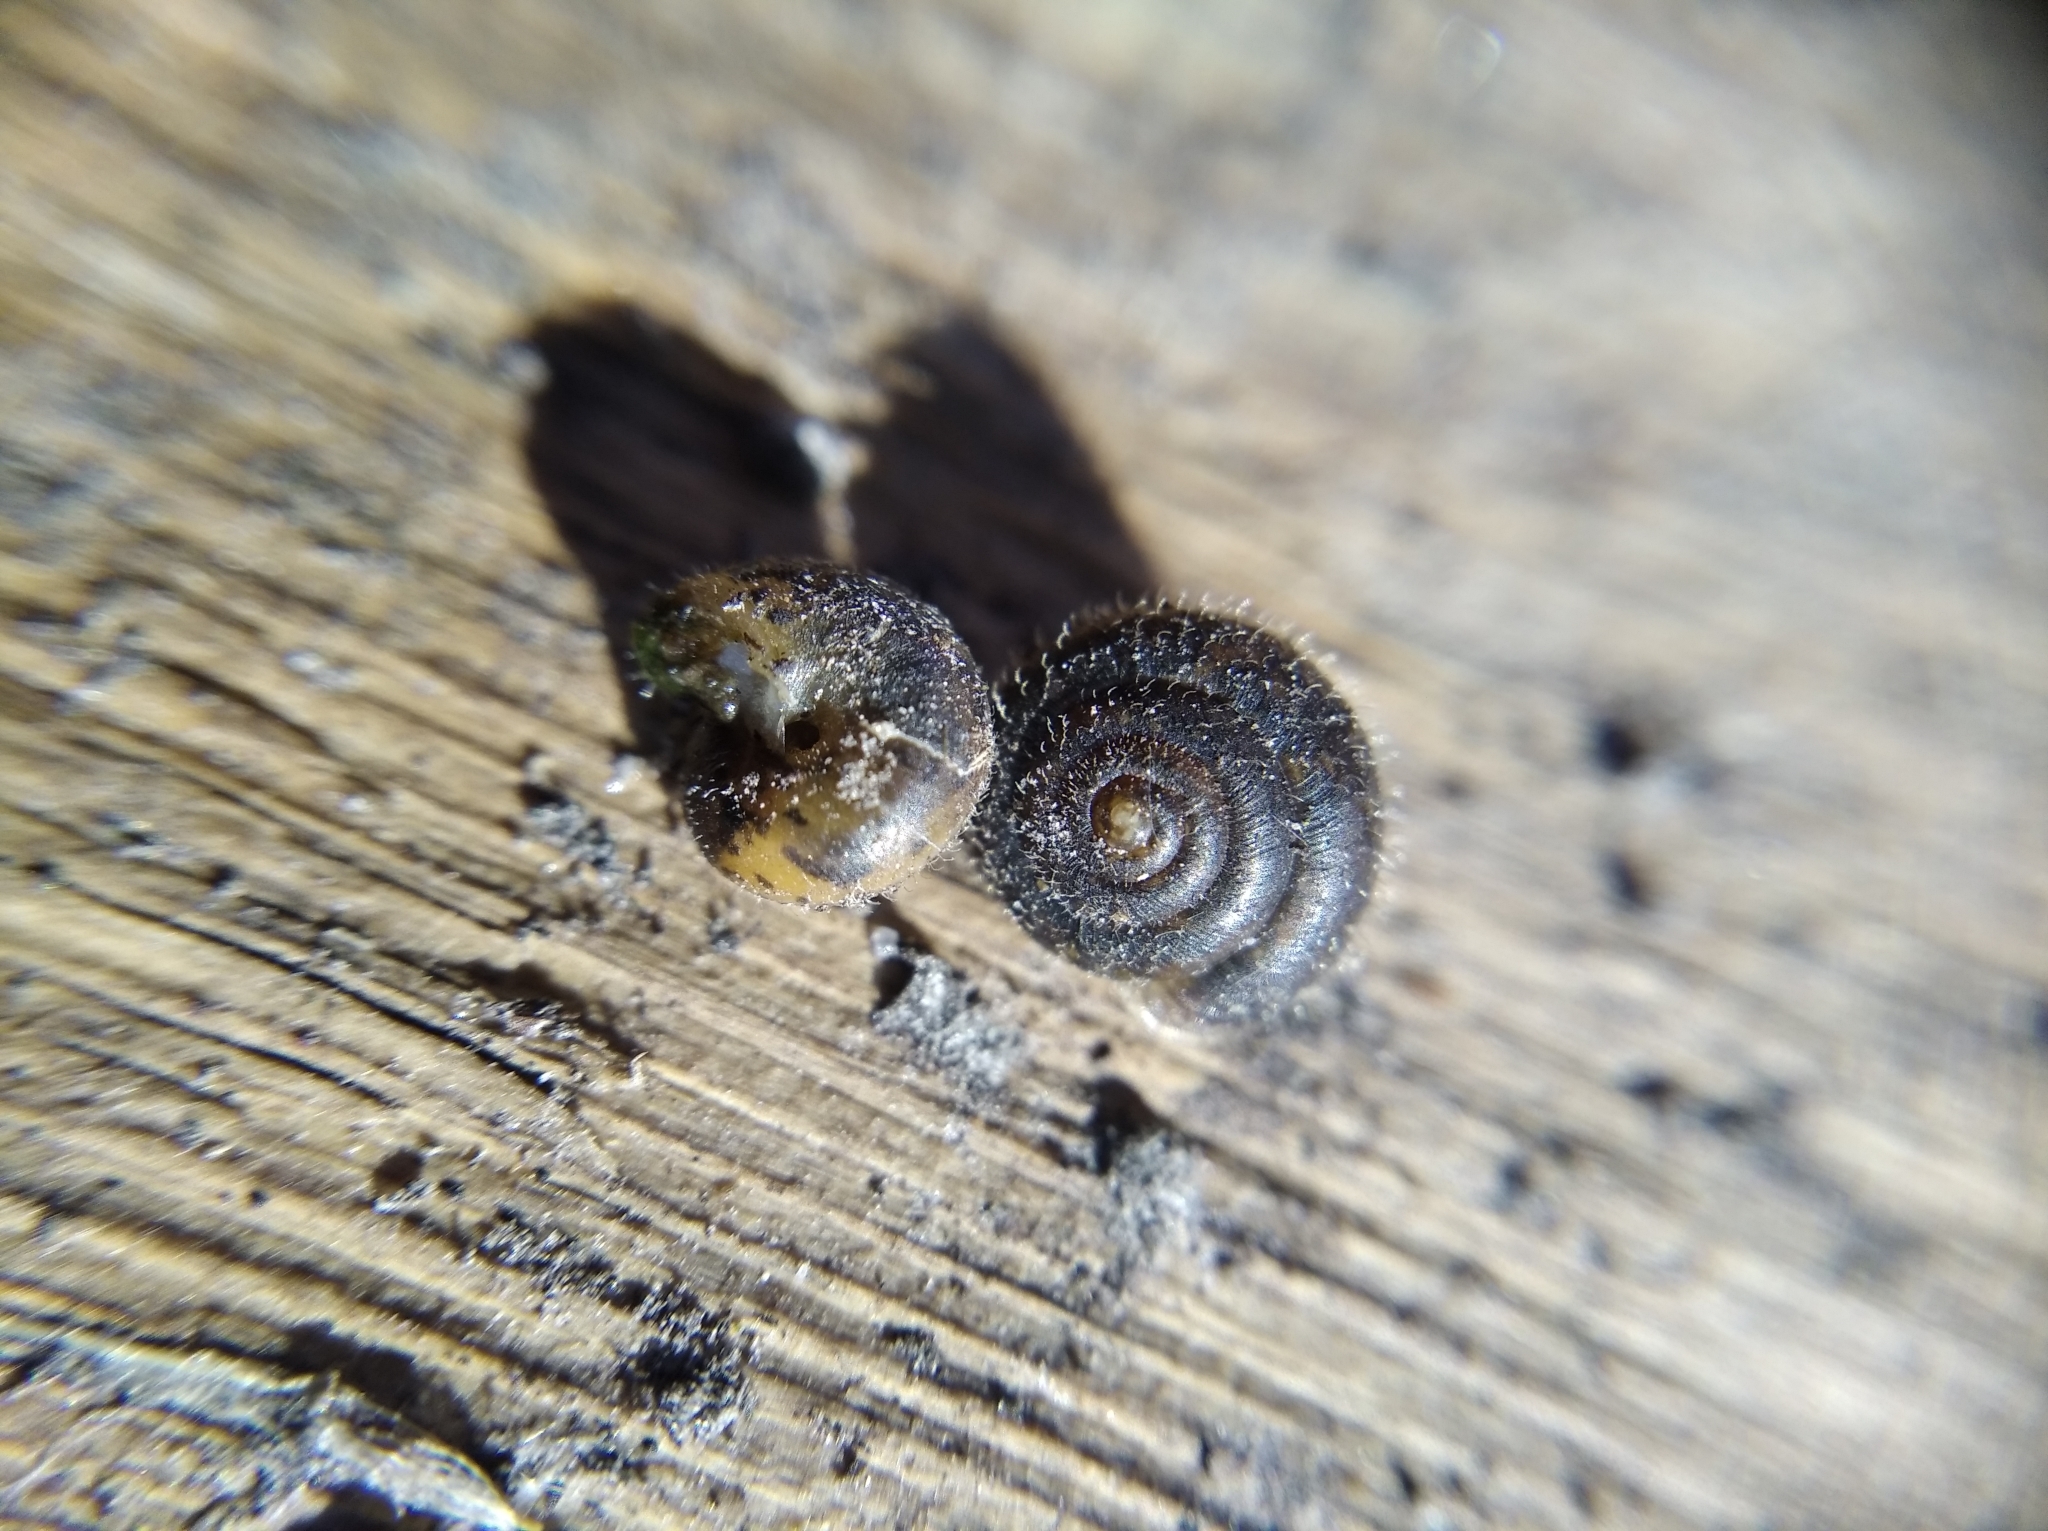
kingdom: Animalia
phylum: Mollusca
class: Gastropoda
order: Stylommatophora
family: Hygromiidae
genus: Pseudotrichia
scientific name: Pseudotrichia rubiginosa
